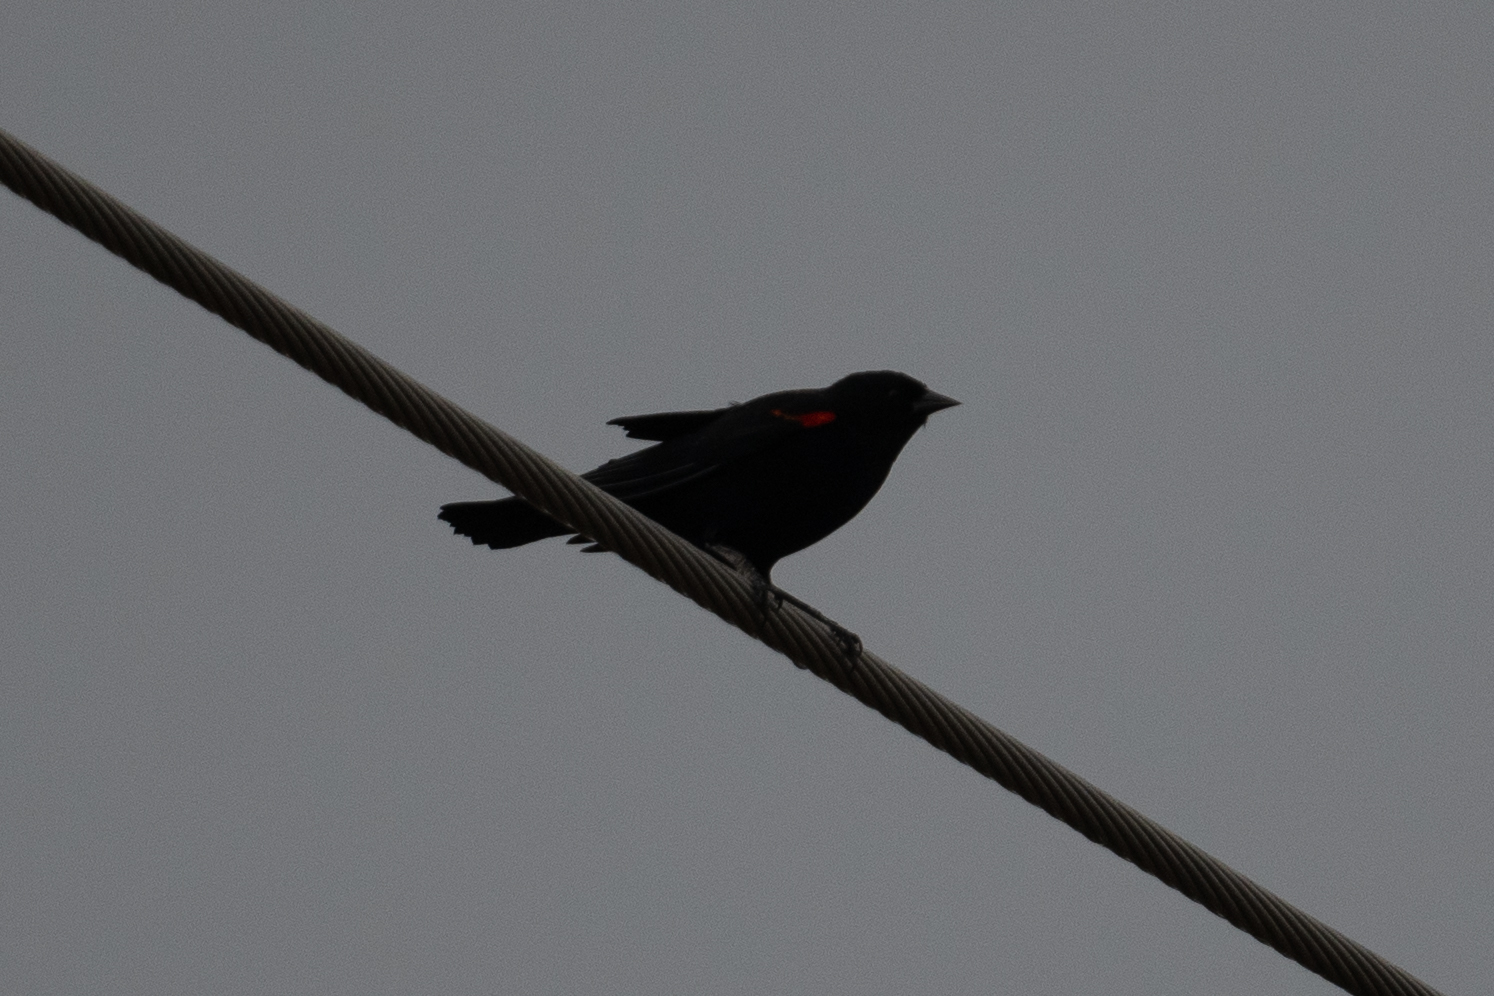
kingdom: Animalia
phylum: Chordata
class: Aves
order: Passeriformes
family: Icteridae
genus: Agelaius
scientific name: Agelaius phoeniceus
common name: Red-winged blackbird
